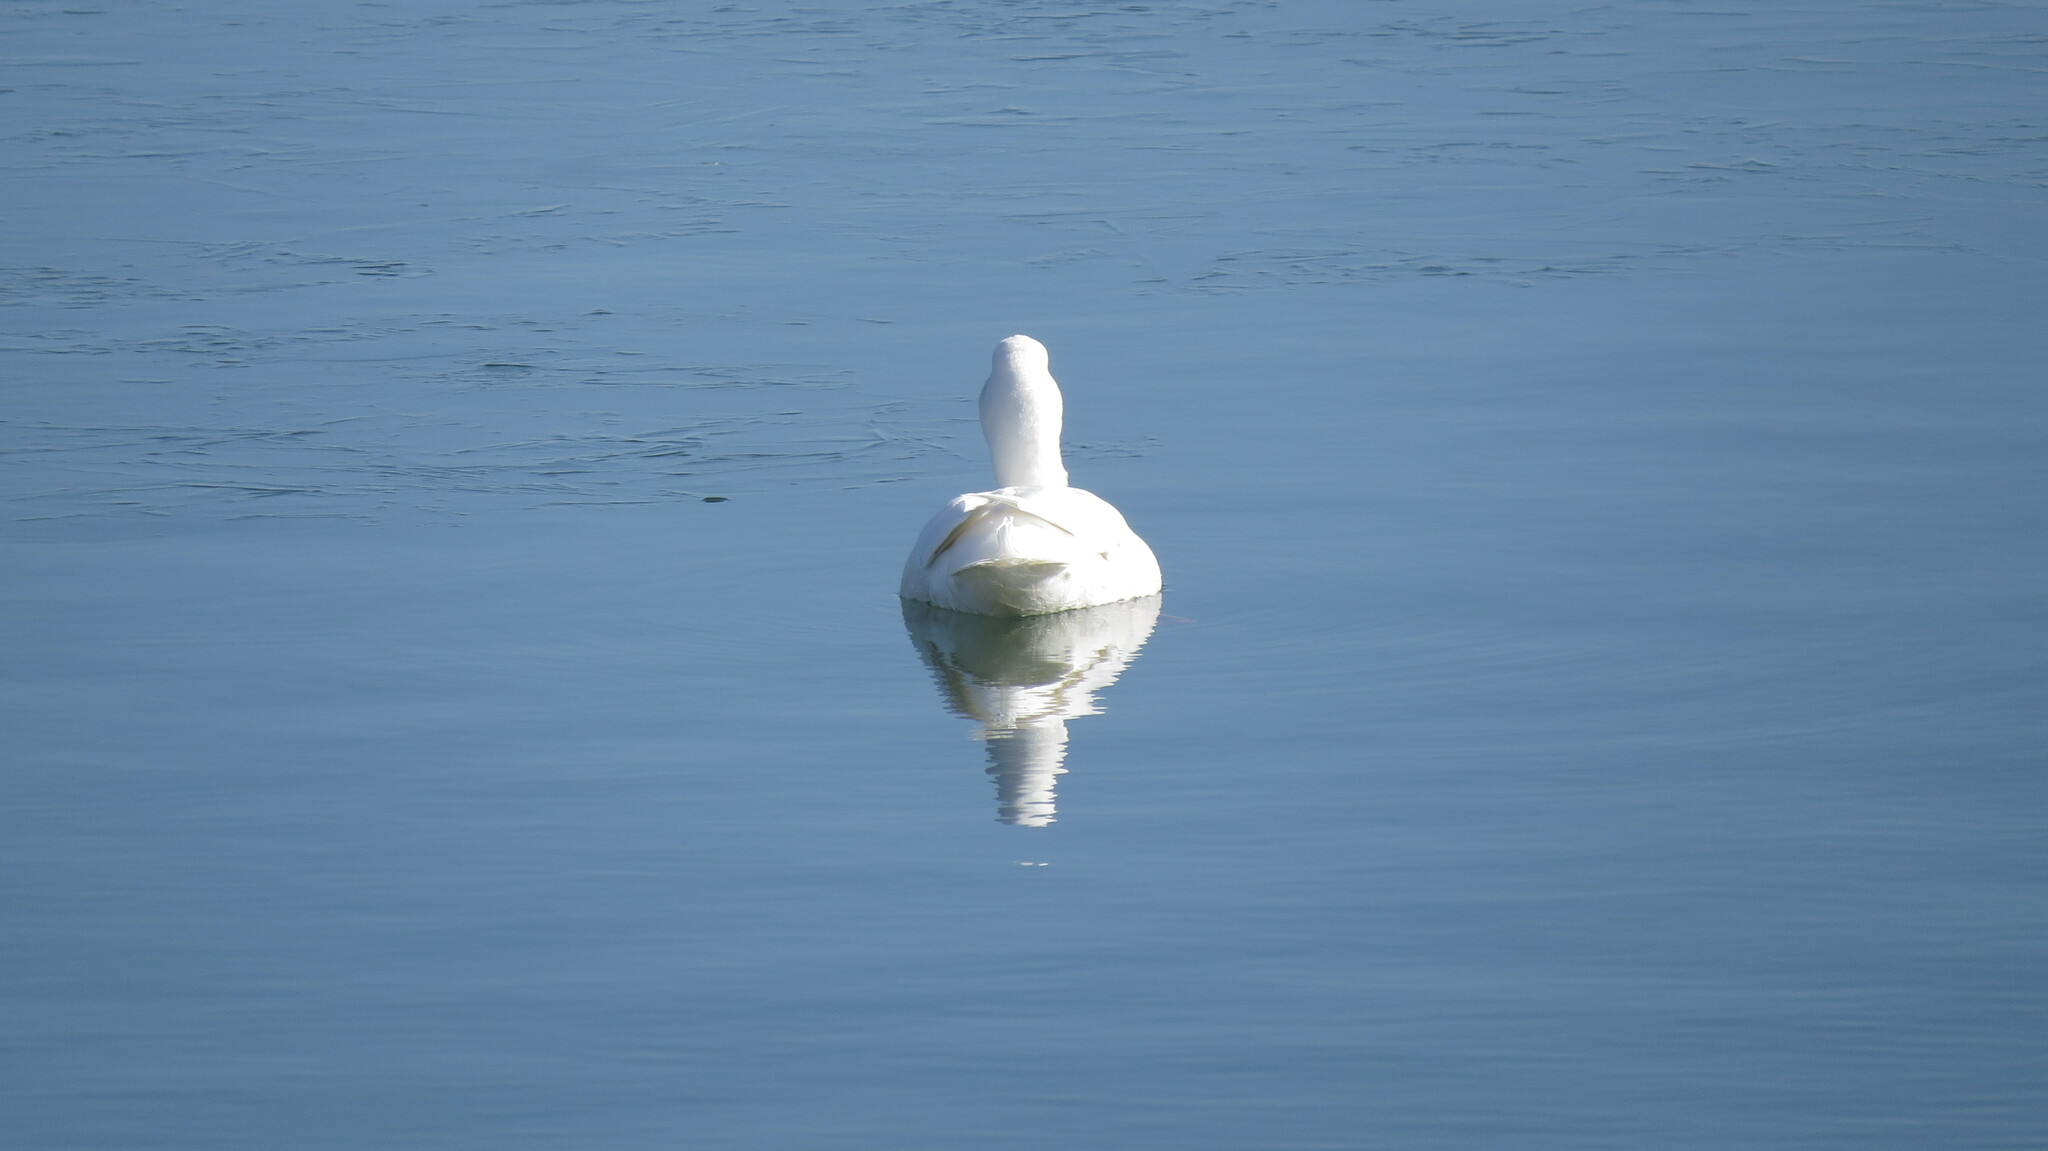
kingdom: Animalia
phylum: Chordata
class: Aves
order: Anseriformes
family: Anatidae
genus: Anas
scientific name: Anas platyrhynchos
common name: Mallard
